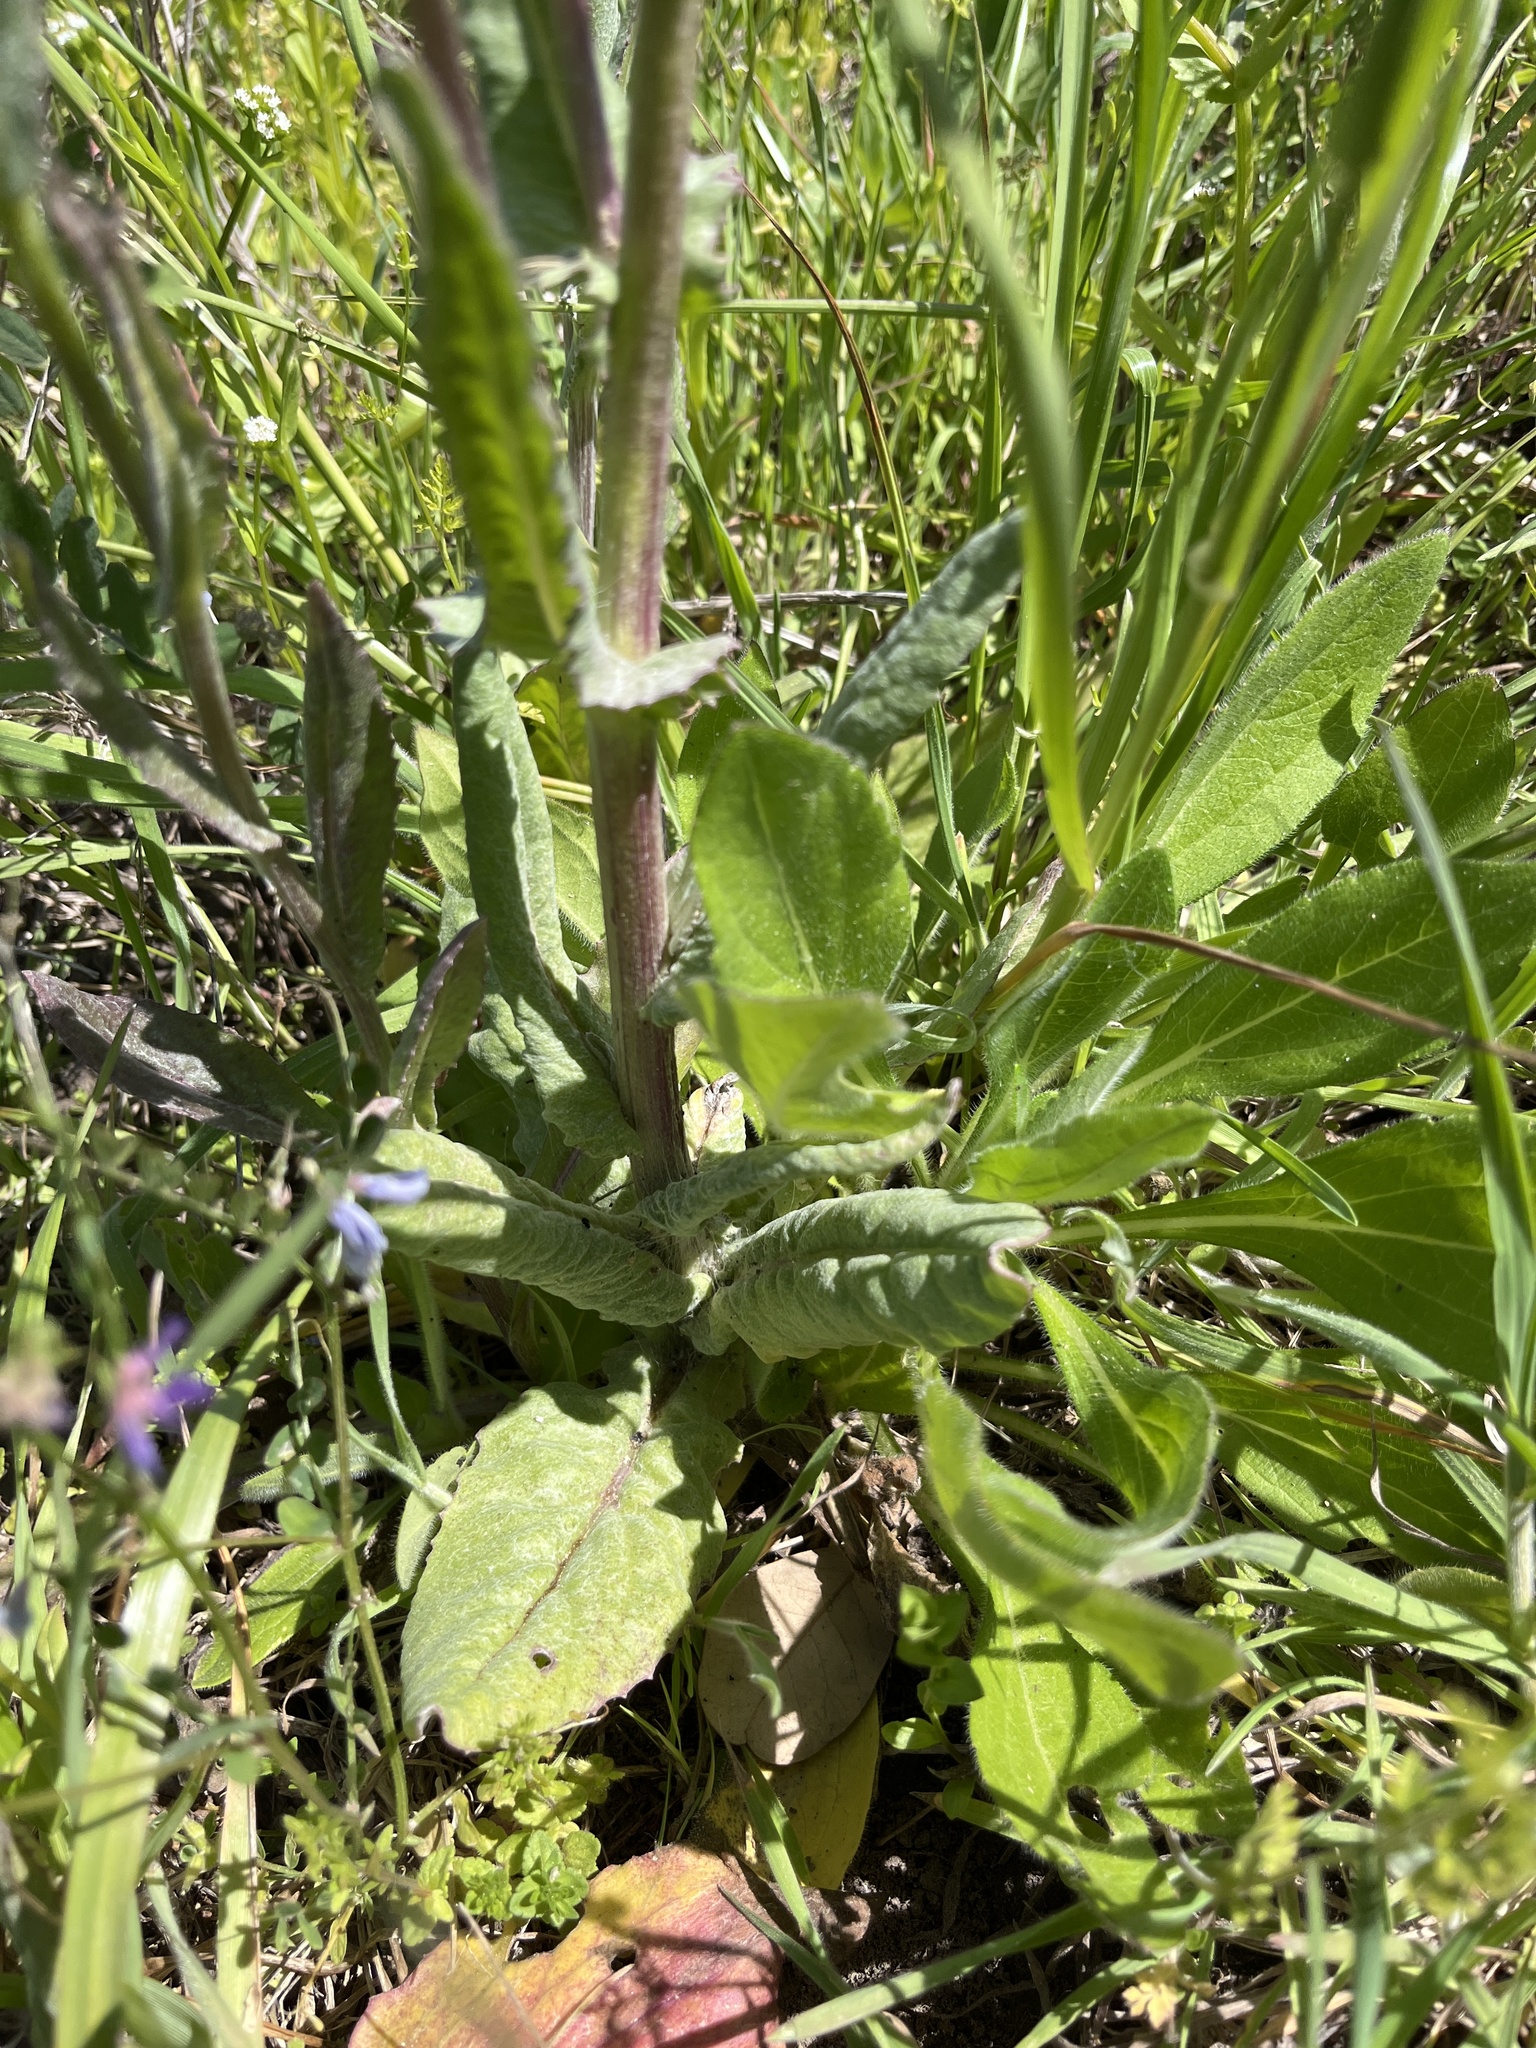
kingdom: Plantae
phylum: Tracheophyta
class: Magnoliopsida
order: Asterales
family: Asteraceae
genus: Senecio
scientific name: Senecio ampullaceus
